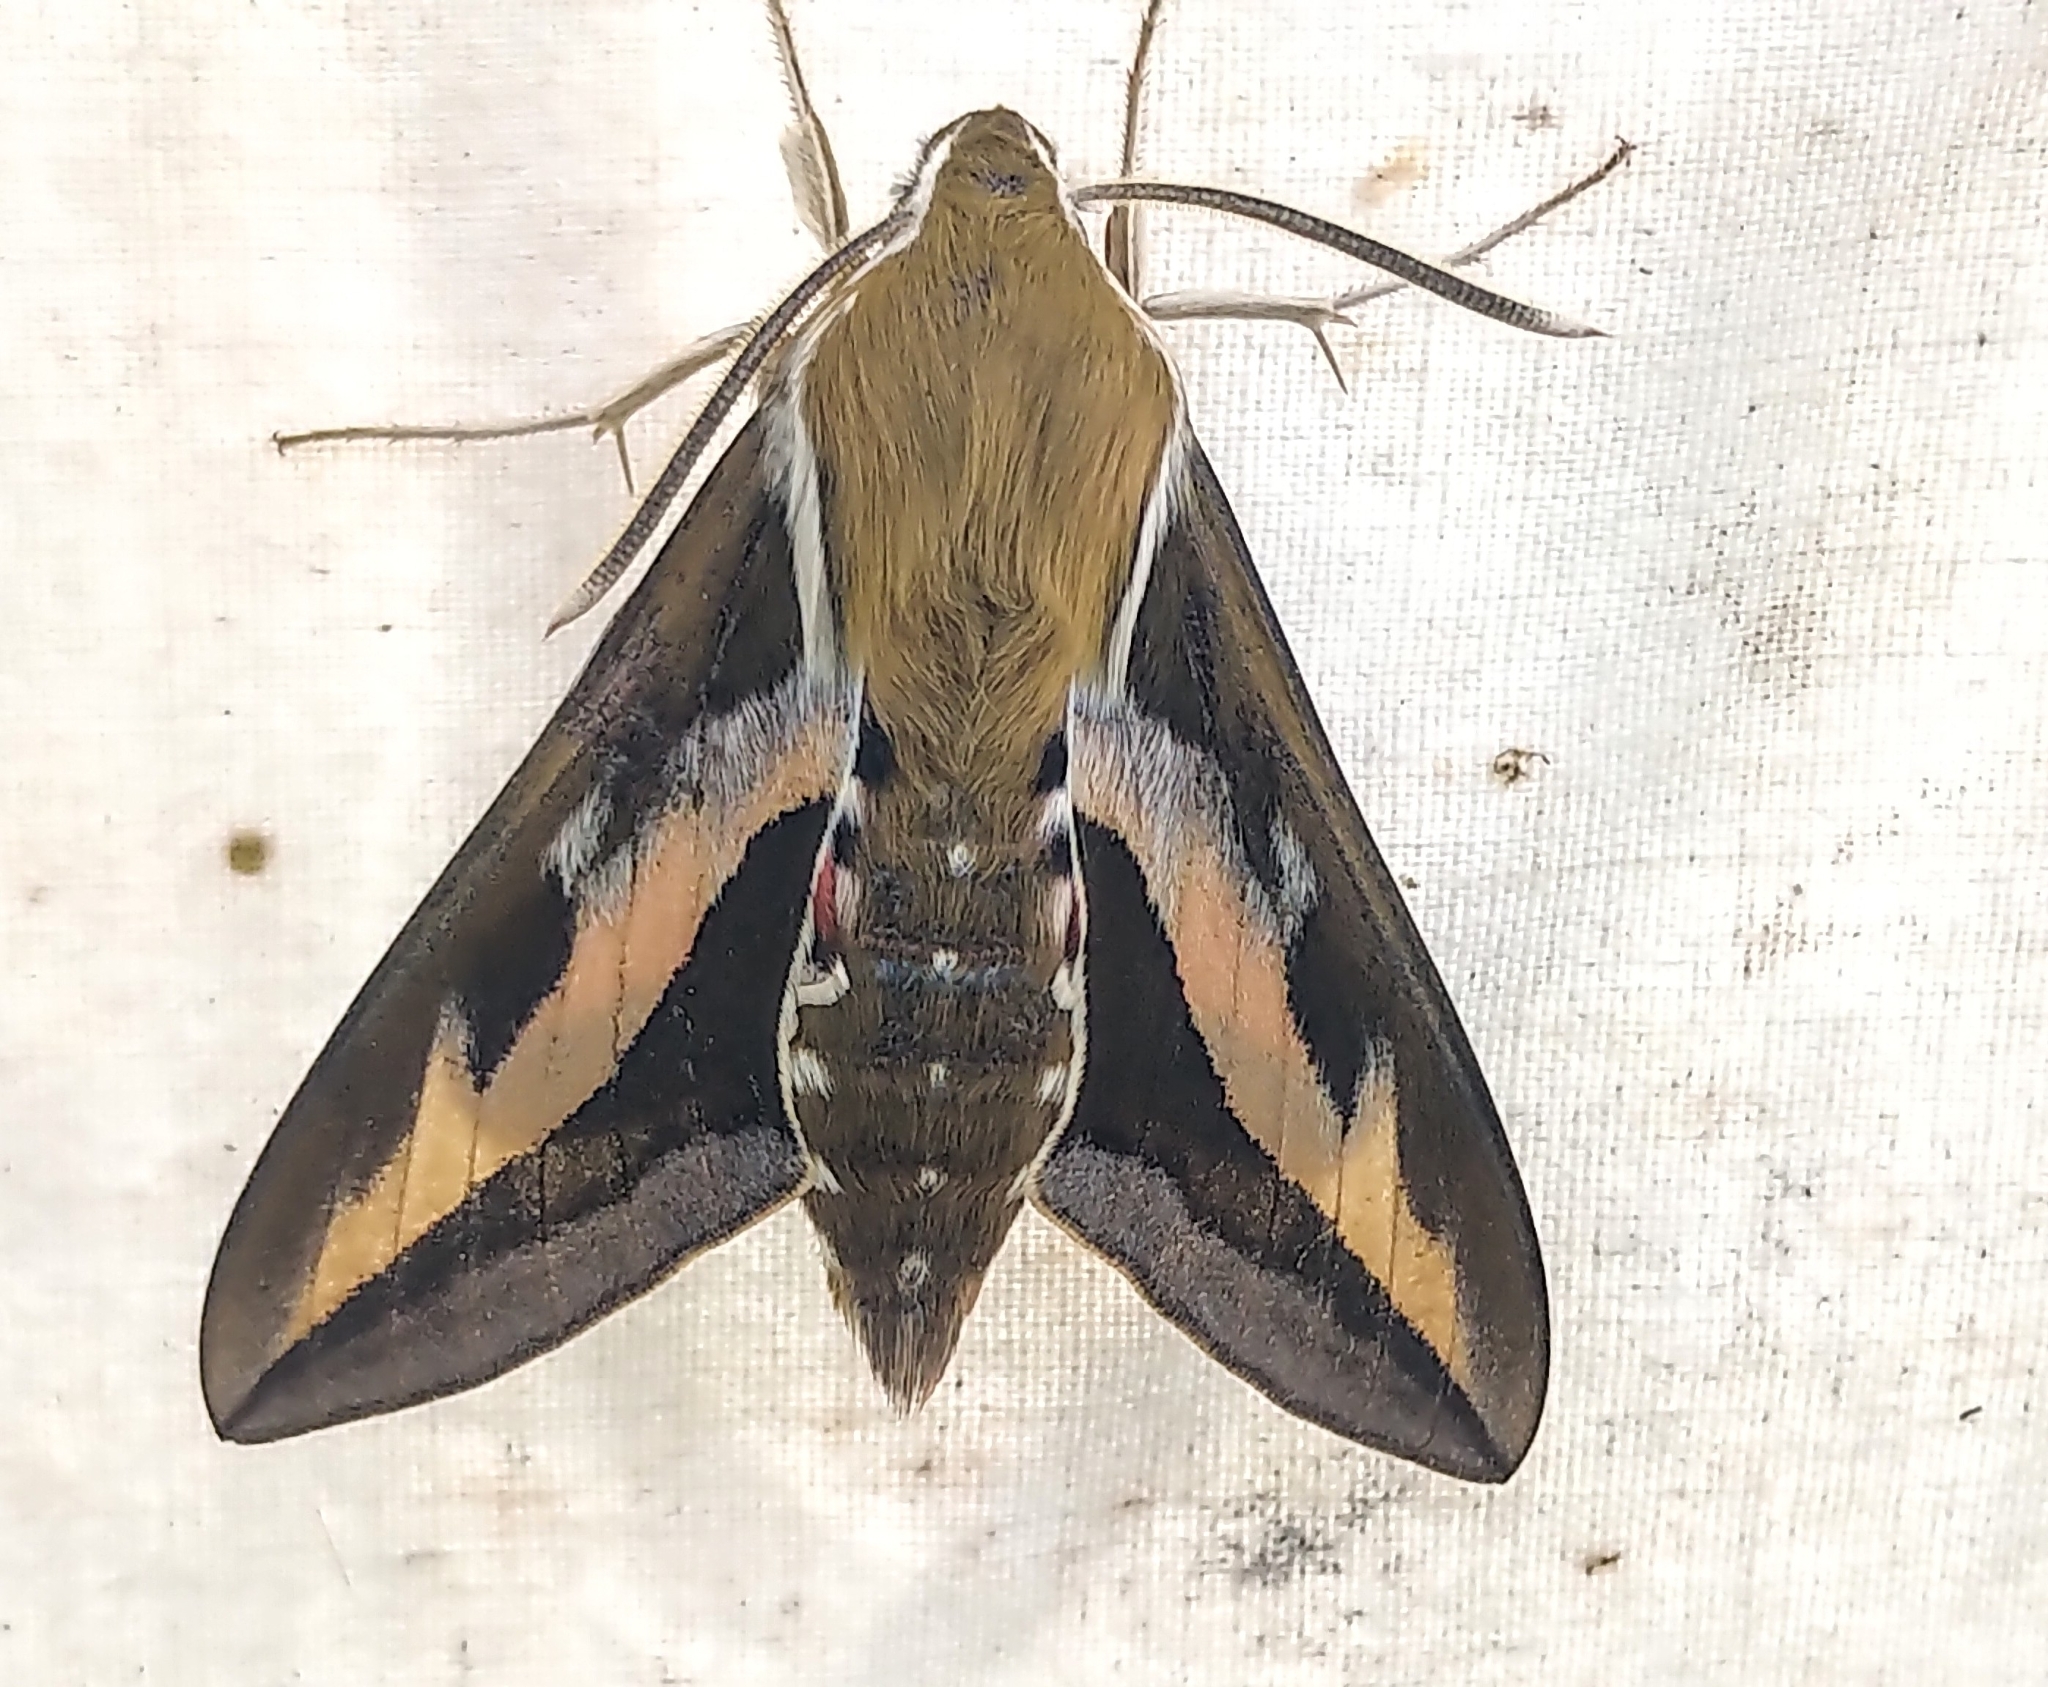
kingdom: Animalia
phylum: Arthropoda
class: Insecta
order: Lepidoptera
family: Sphingidae
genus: Hyles
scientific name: Hyles gallii
